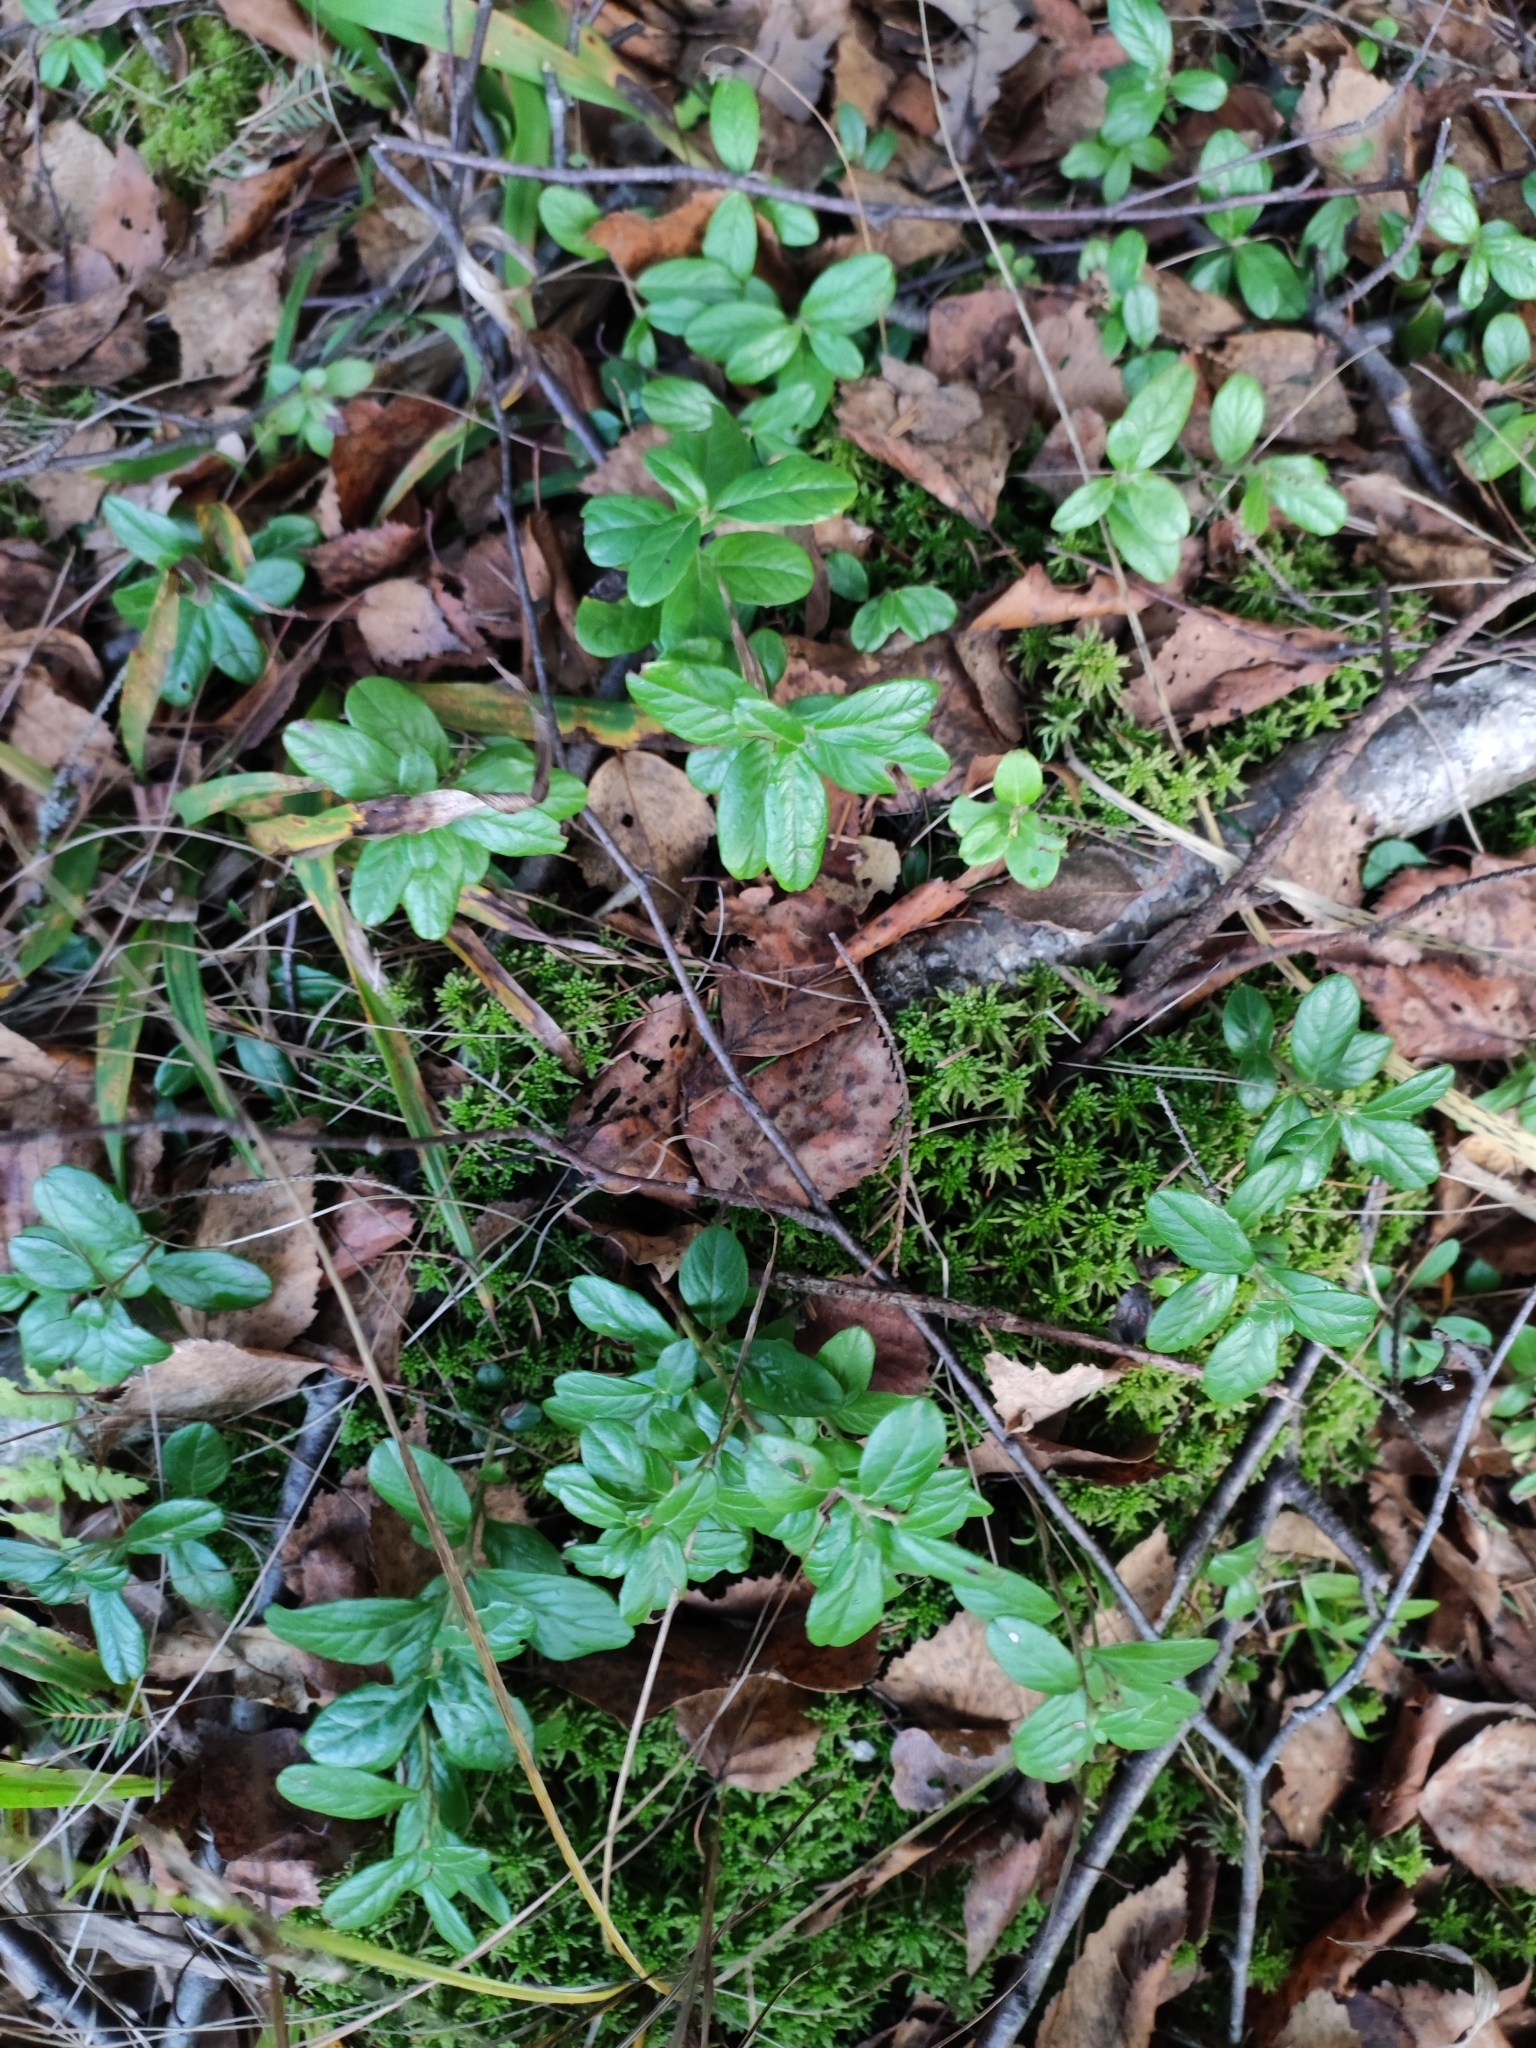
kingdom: Plantae
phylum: Tracheophyta
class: Magnoliopsida
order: Ericales
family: Ericaceae
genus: Vaccinium
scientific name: Vaccinium vitis-idaea
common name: Cowberry
